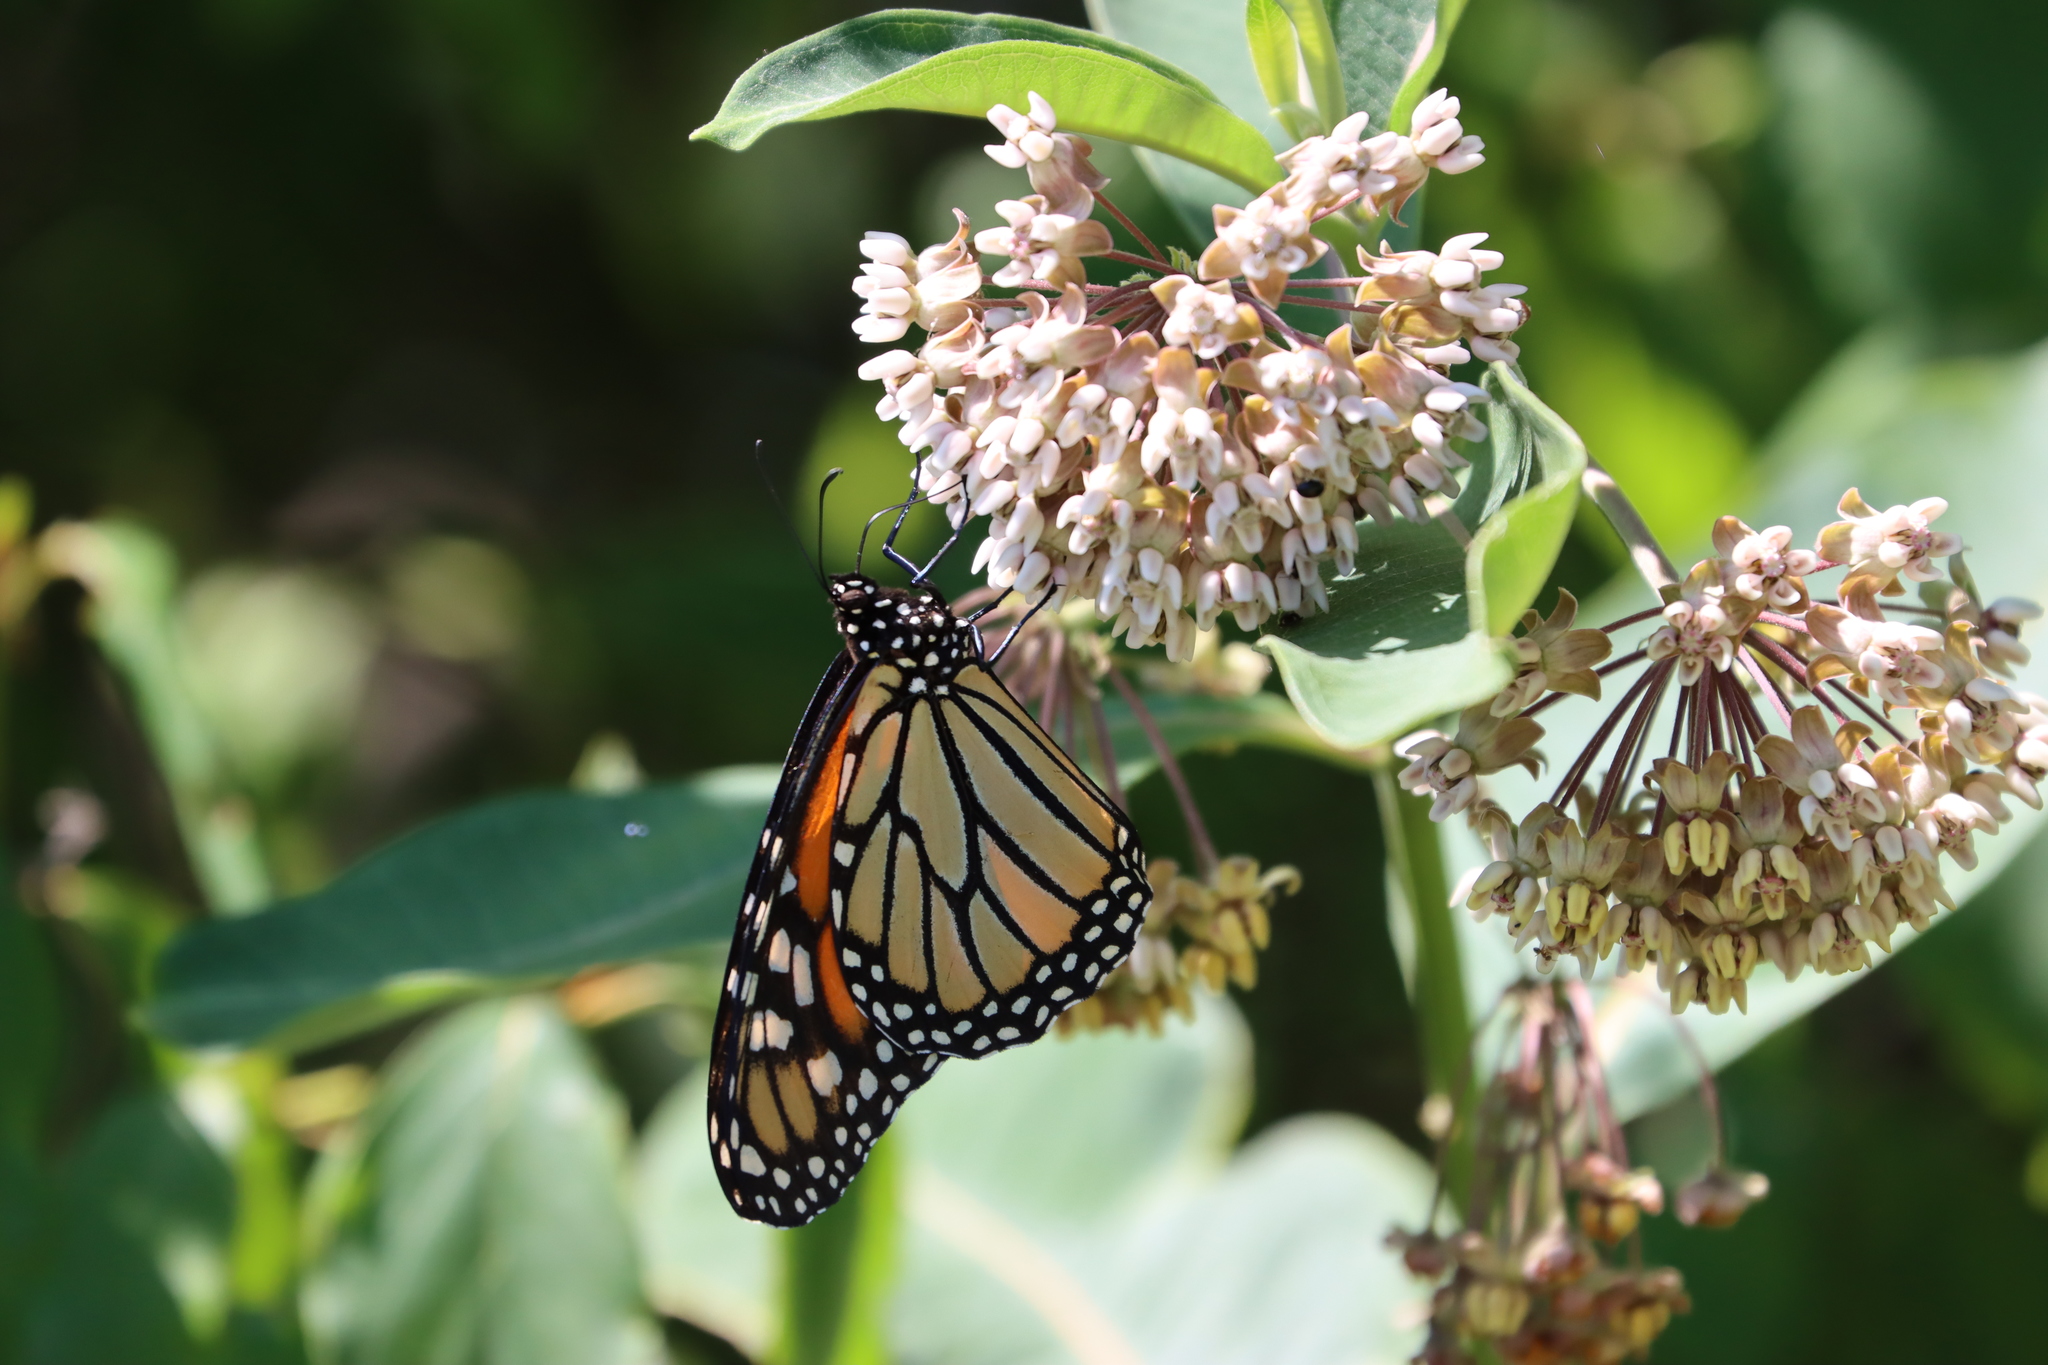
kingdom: Animalia
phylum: Arthropoda
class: Insecta
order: Lepidoptera
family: Nymphalidae
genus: Danaus
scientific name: Danaus plexippus
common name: Monarch
